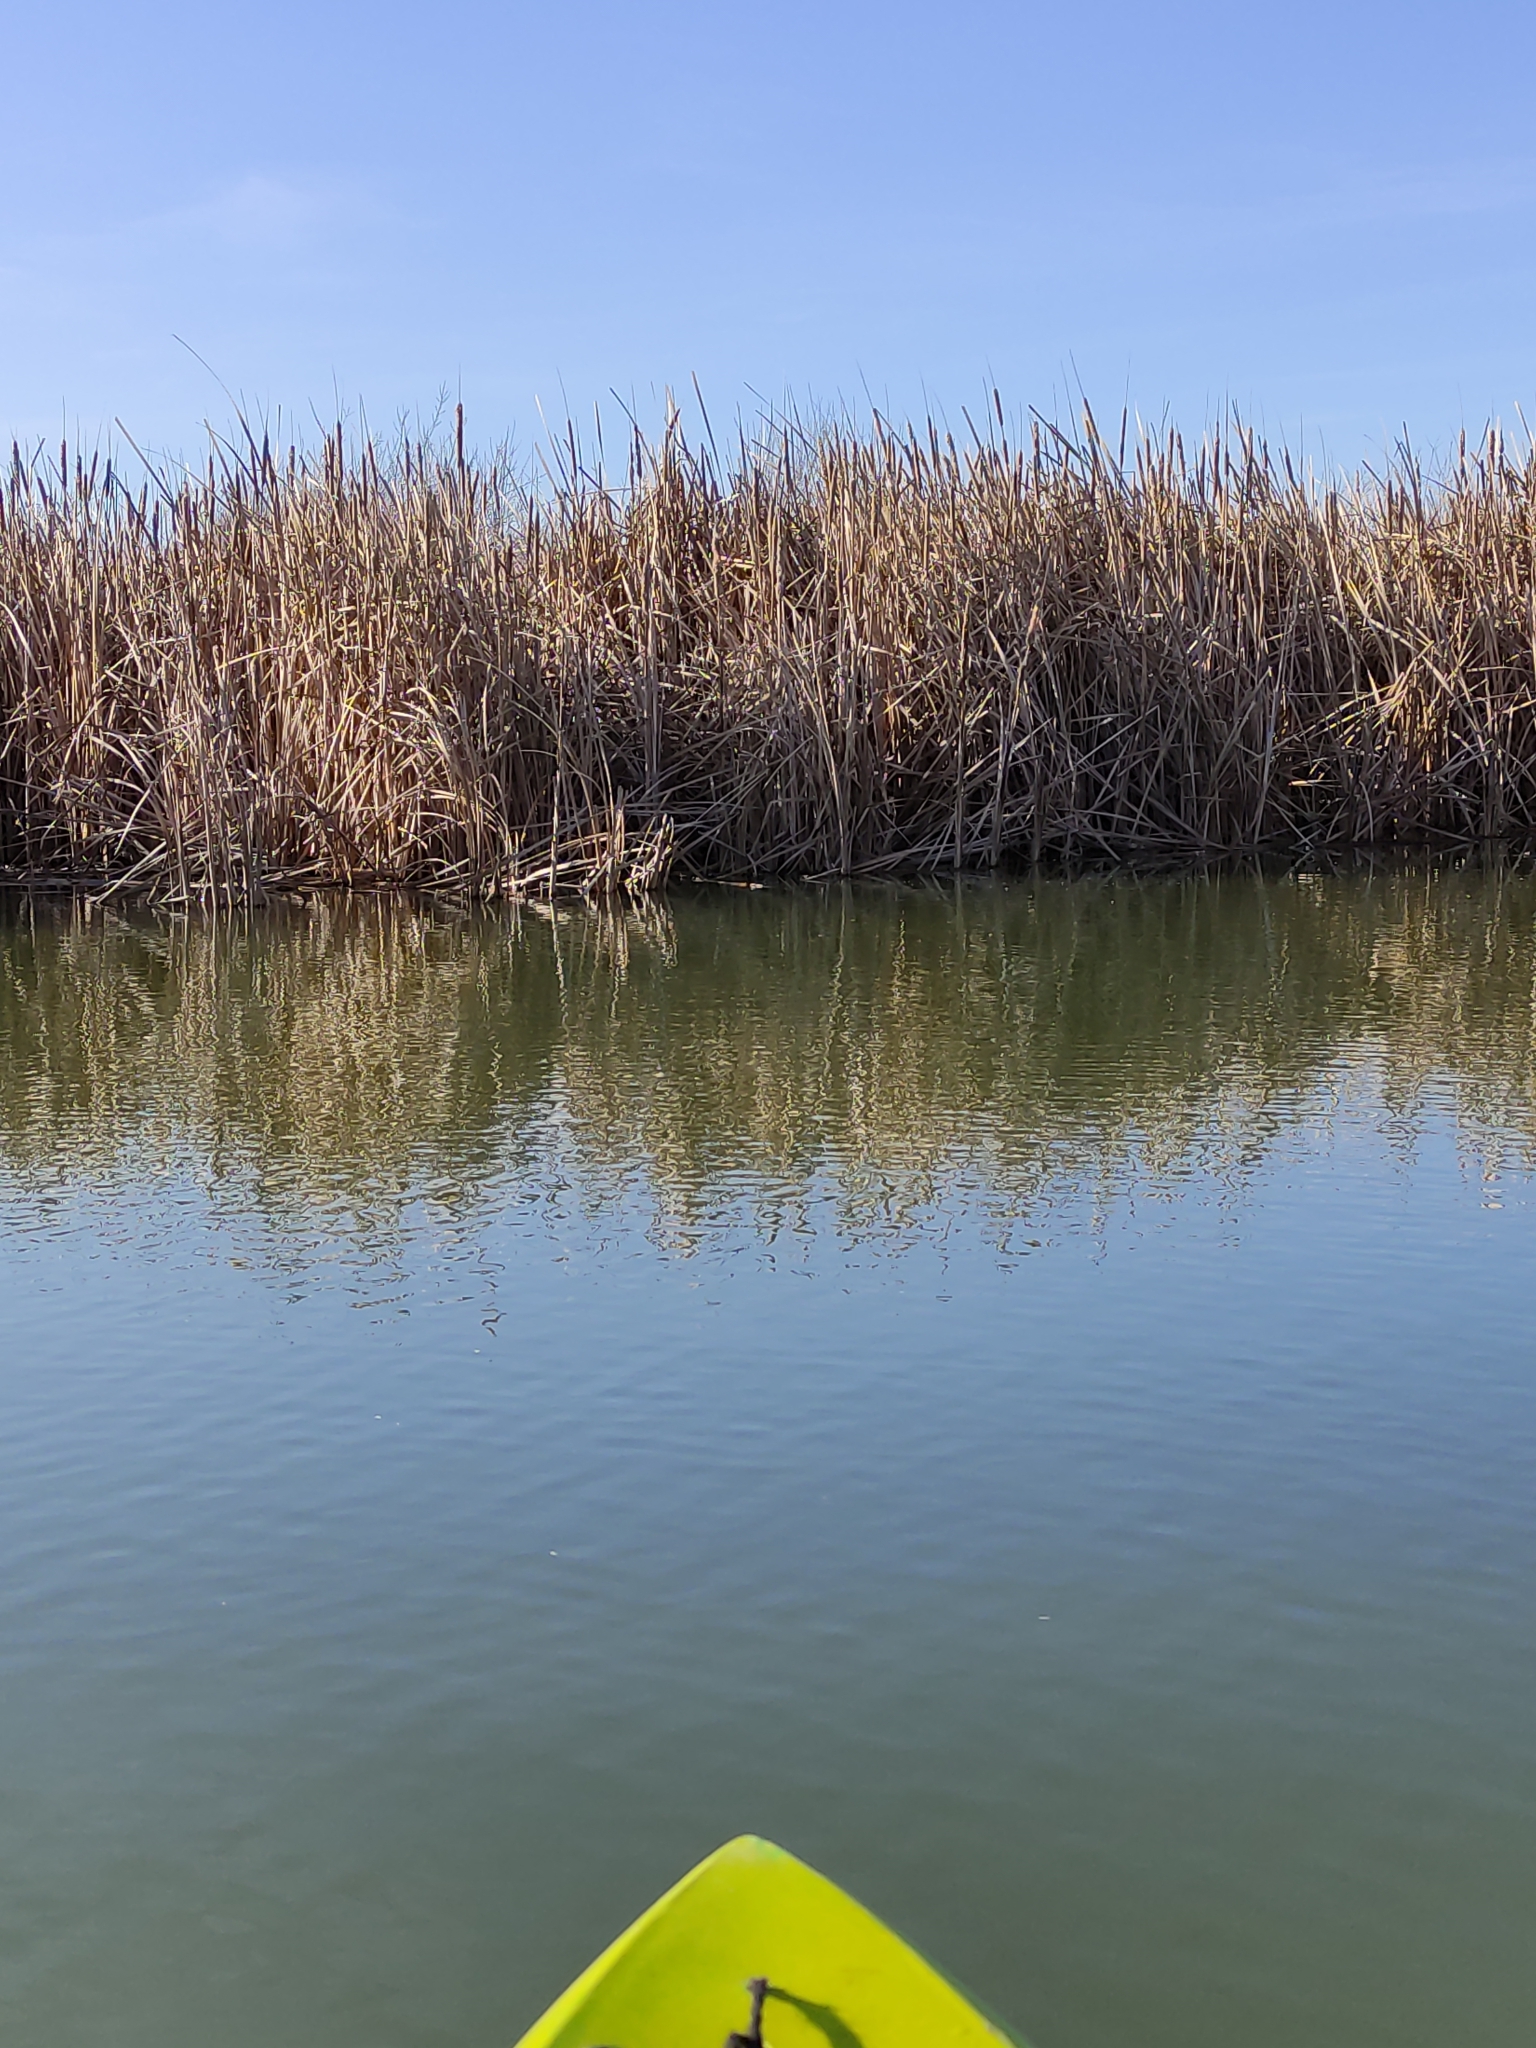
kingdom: Plantae
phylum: Tracheophyta
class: Liliopsida
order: Poales
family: Typhaceae
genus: Typha
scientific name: Typha orientalis
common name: Bullrush
